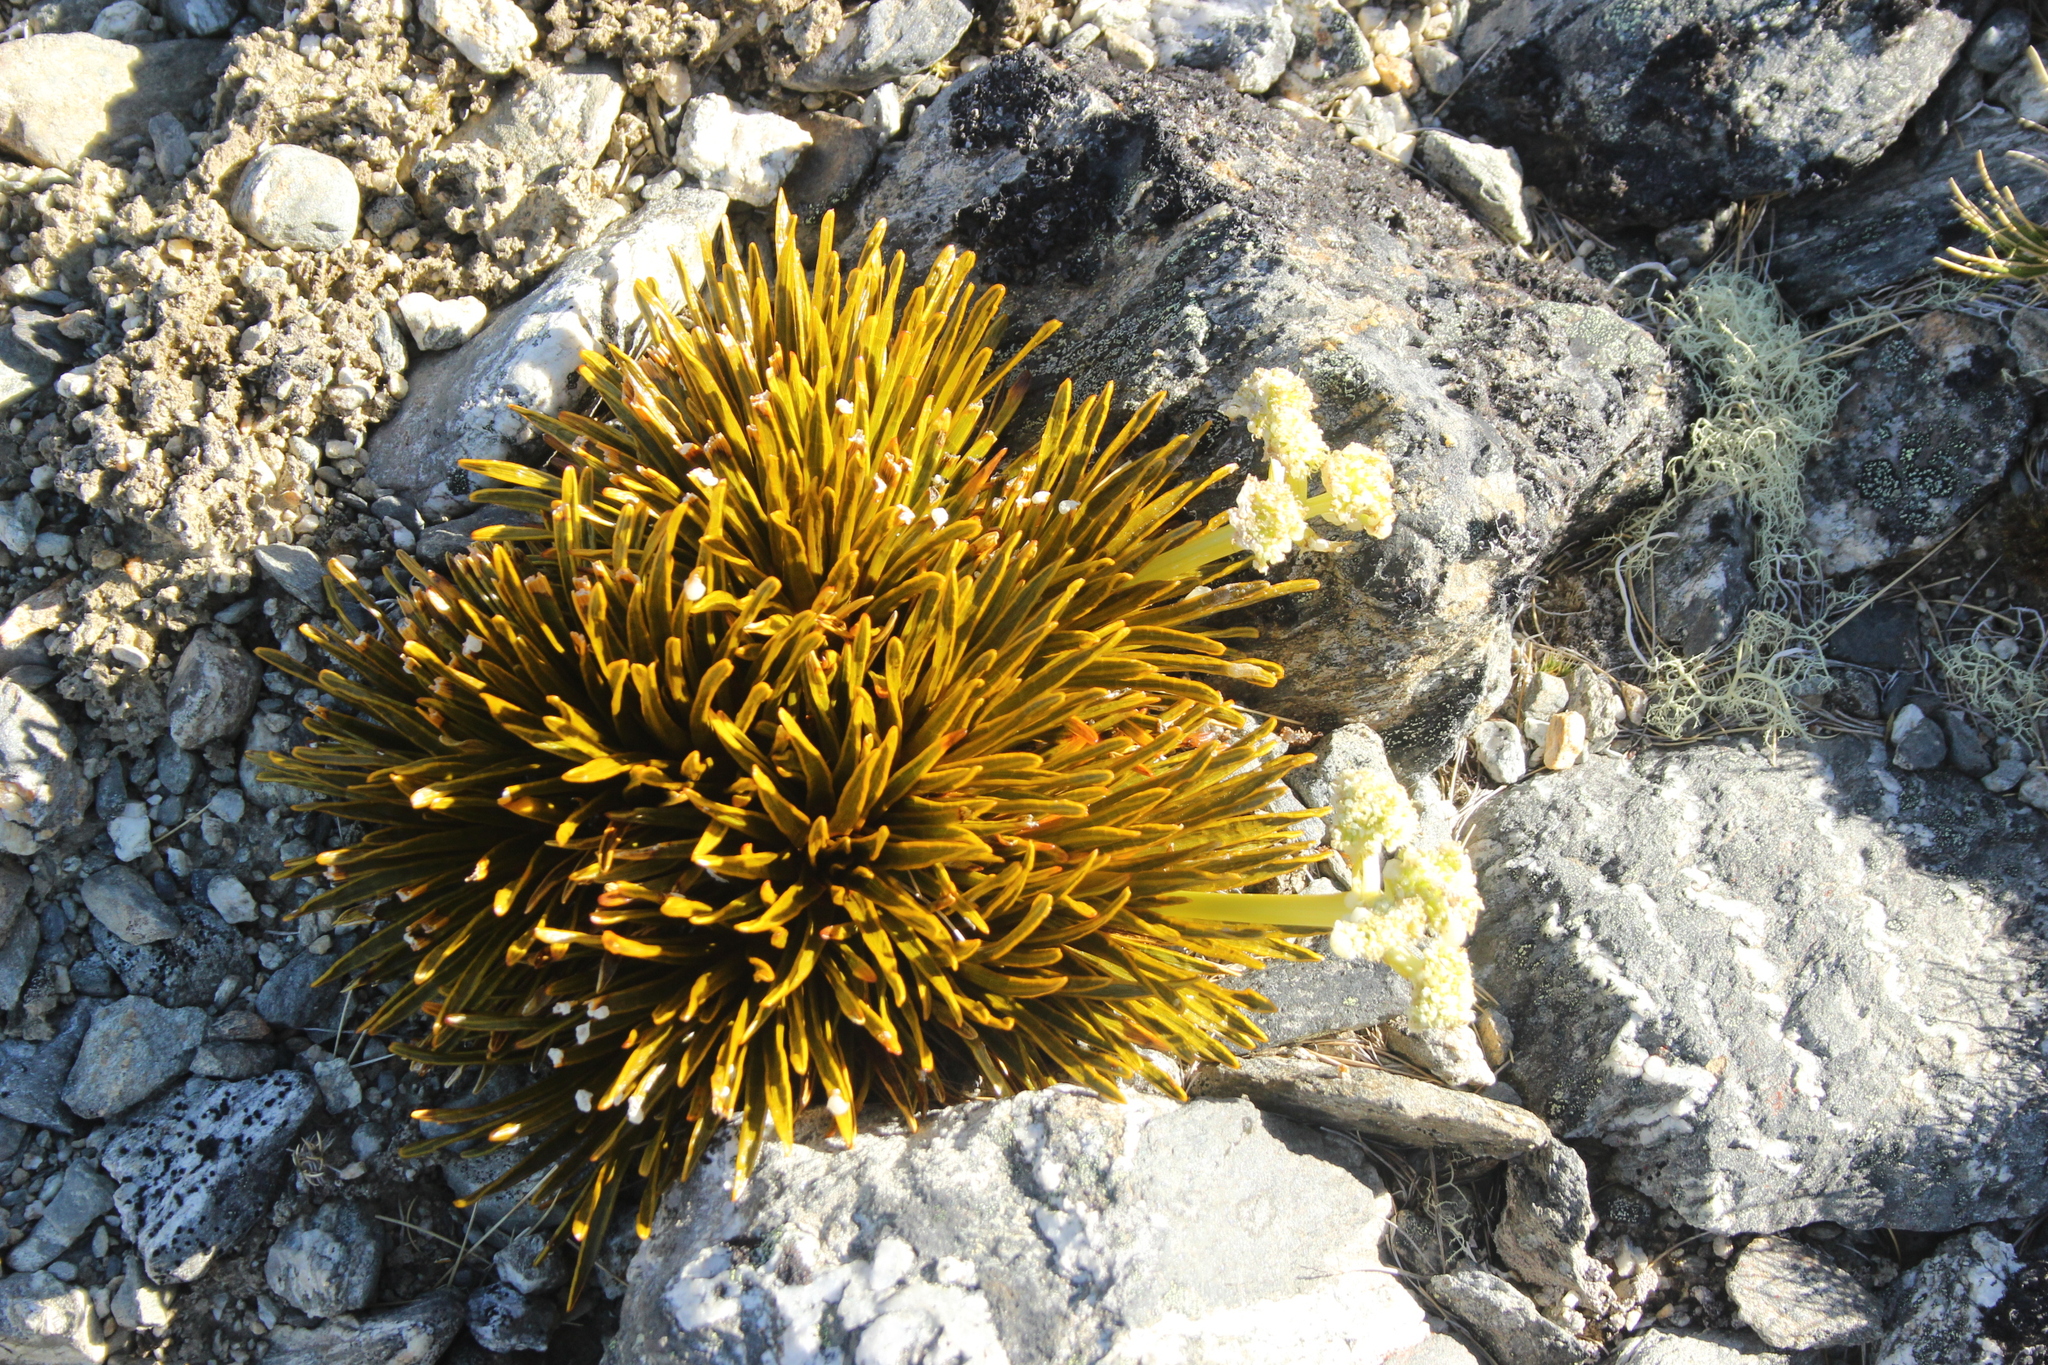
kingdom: Plantae
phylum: Tracheophyta
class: Magnoliopsida
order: Apiales
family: Apiaceae
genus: Aciphylla
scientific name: Aciphylla simplex
